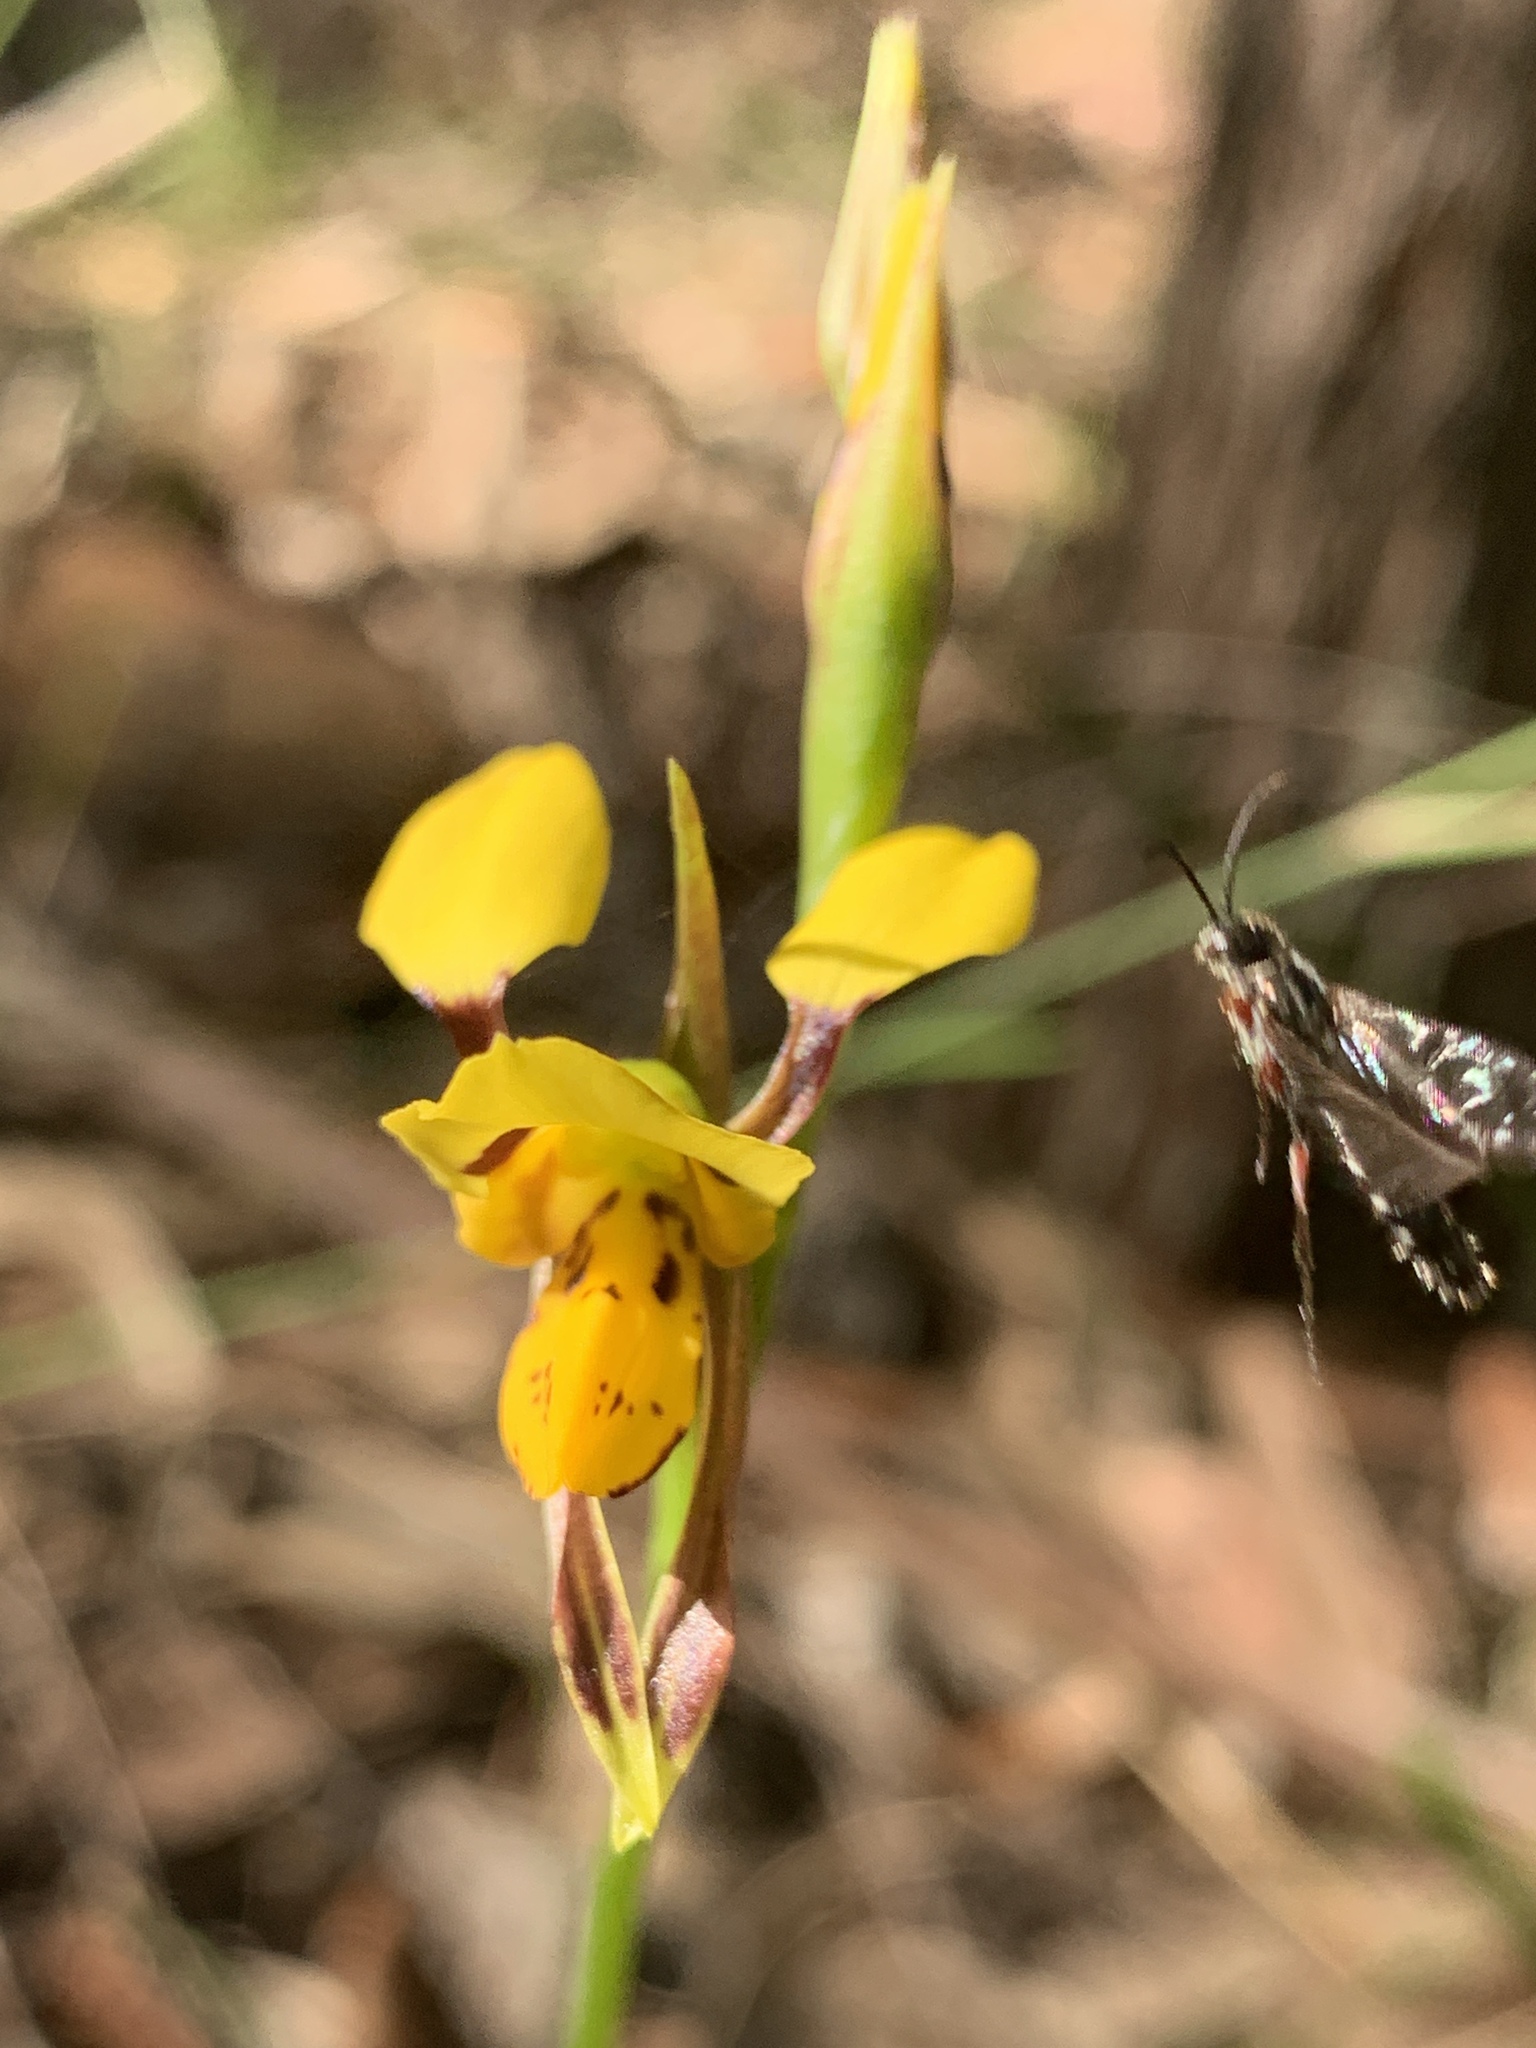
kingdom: Plantae
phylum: Tracheophyta
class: Liliopsida
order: Asparagales
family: Orchidaceae
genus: Diuris
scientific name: Diuris sulphurea
